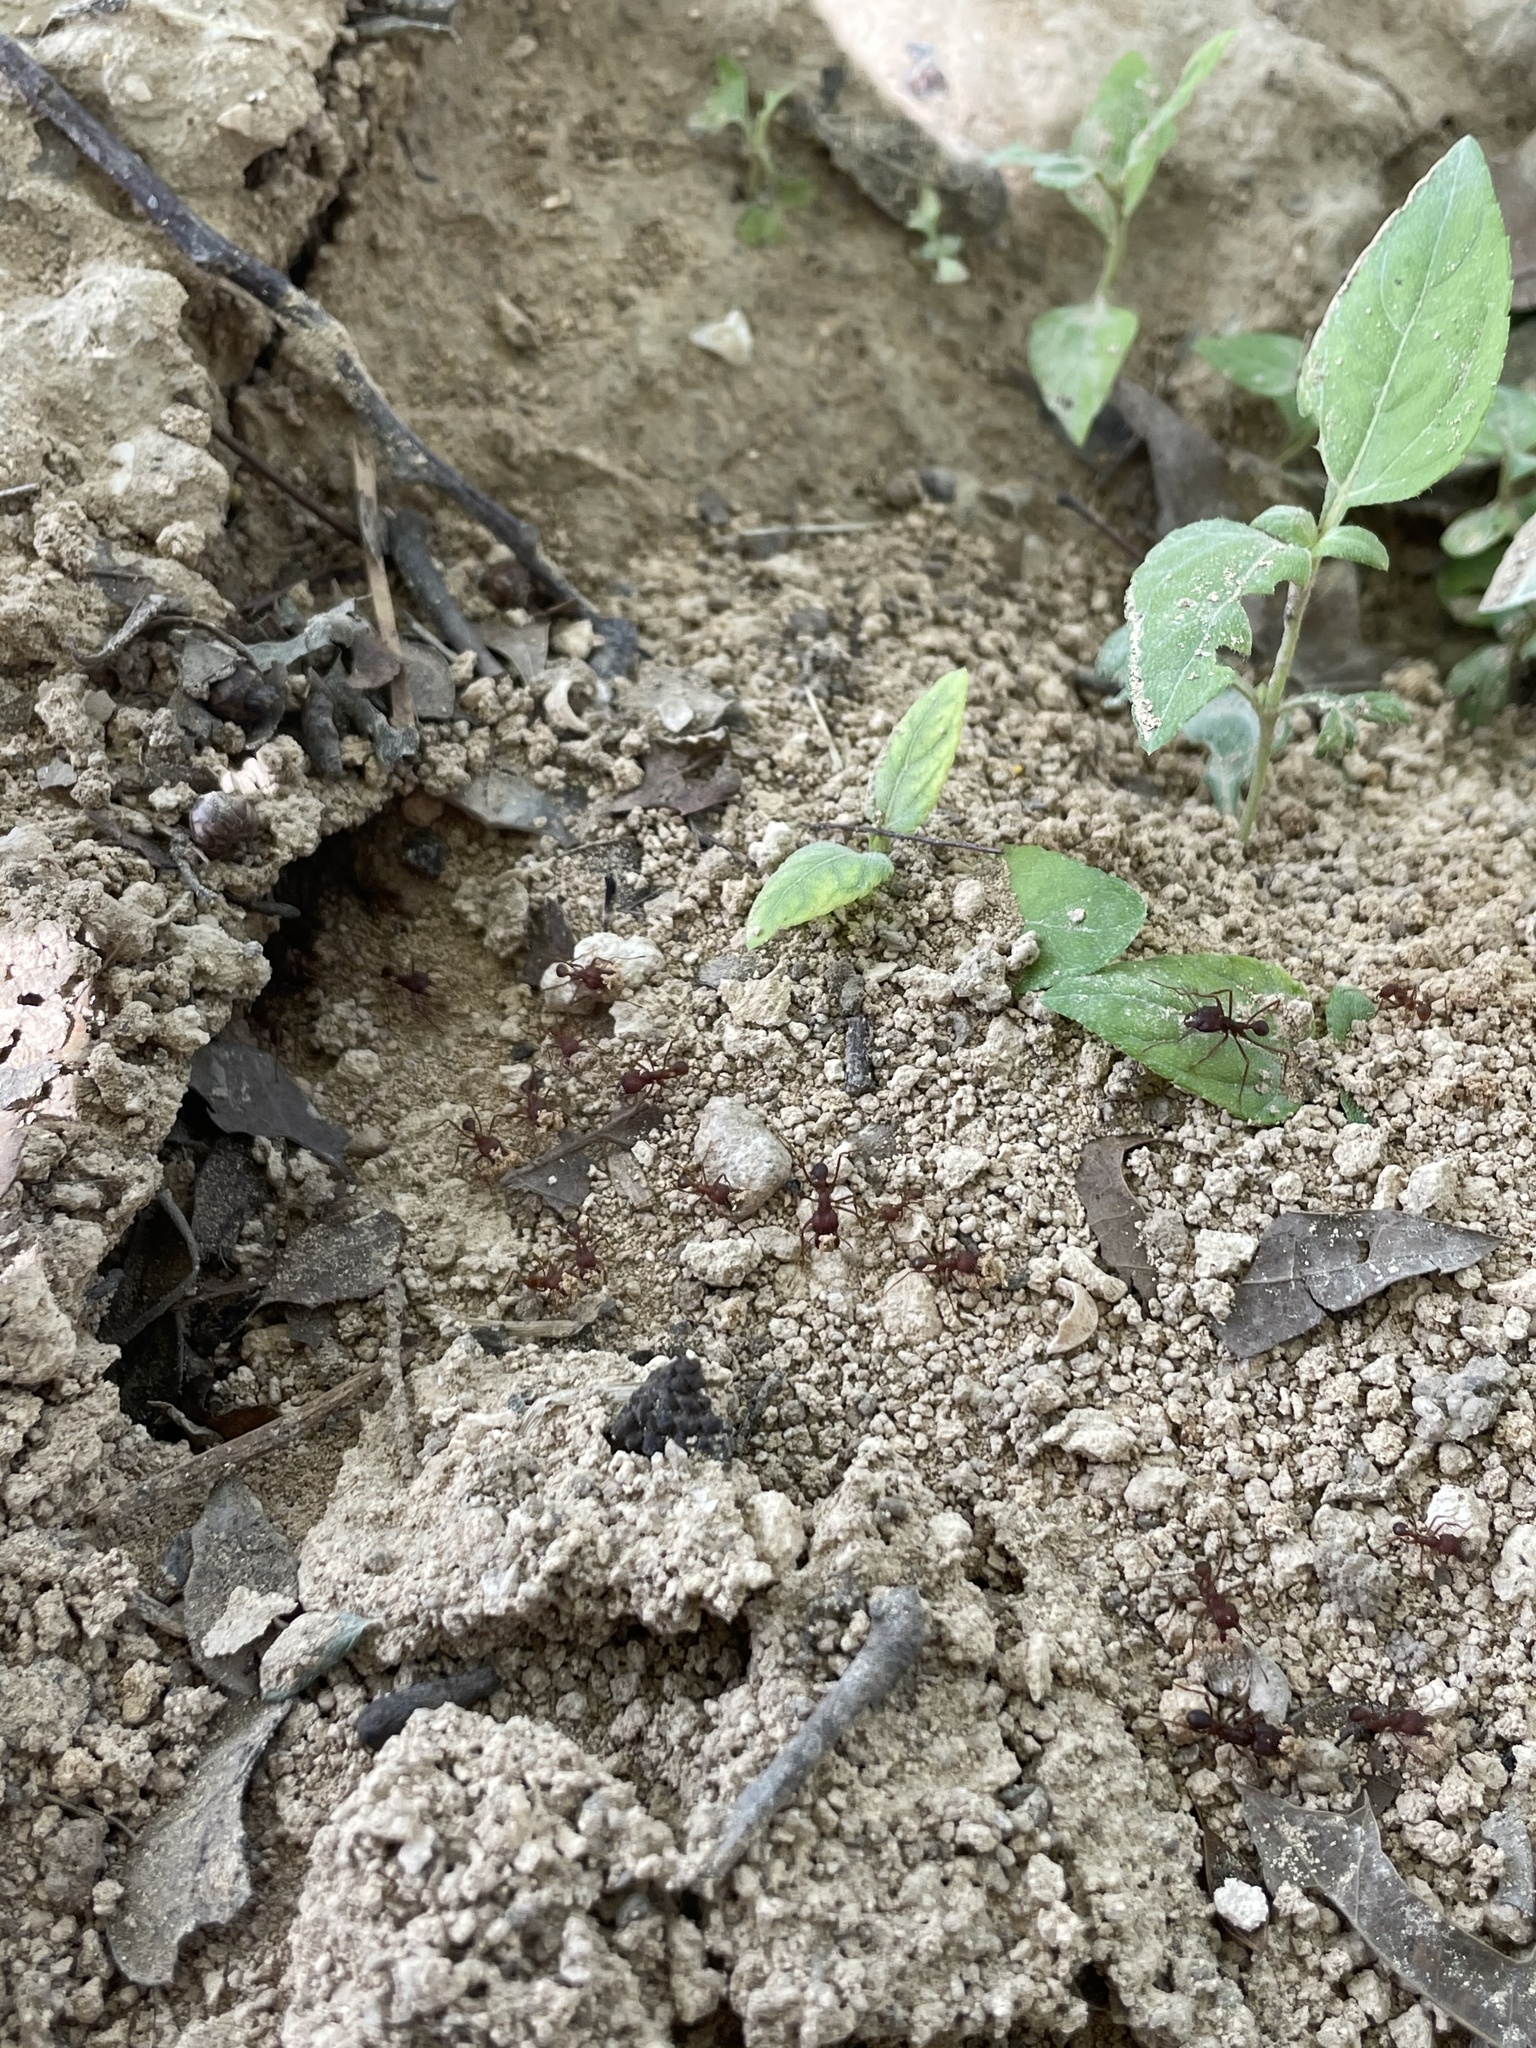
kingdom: Animalia
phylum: Arthropoda
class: Insecta
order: Hymenoptera
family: Formicidae
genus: Atta
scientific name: Atta texana
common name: Texas leafcutting ant
